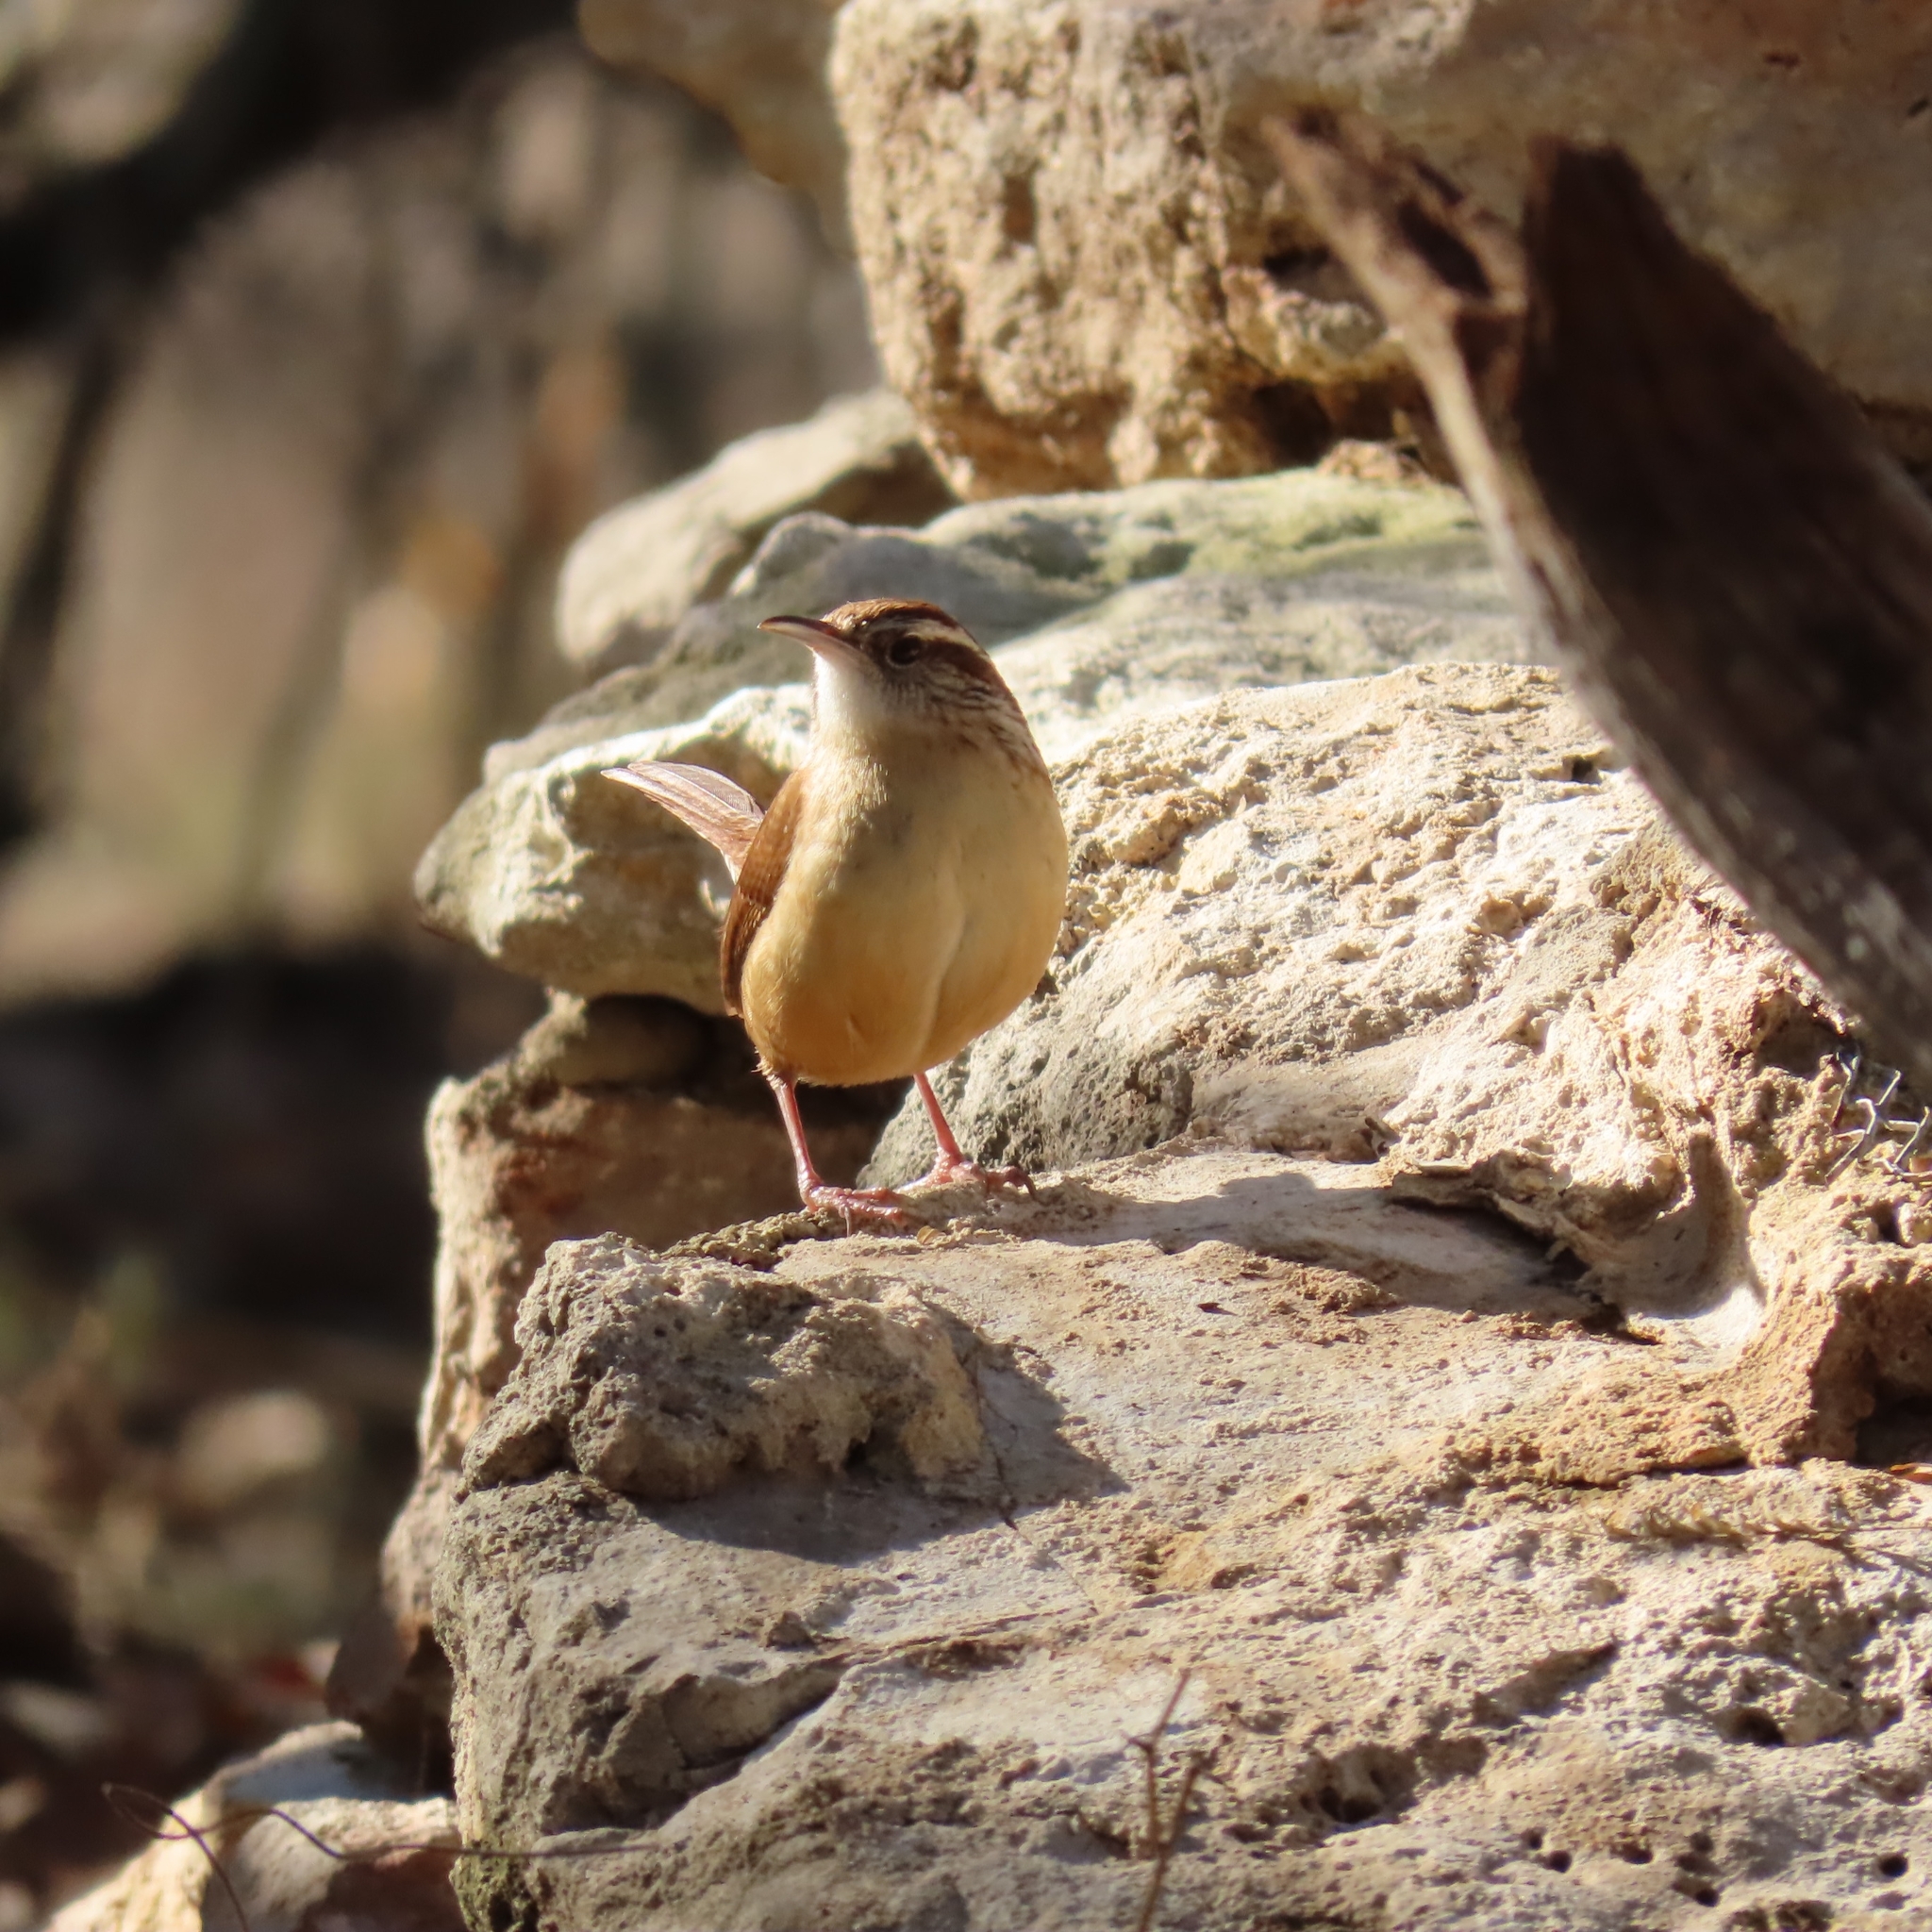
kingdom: Animalia
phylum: Chordata
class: Aves
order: Passeriformes
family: Troglodytidae
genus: Thryothorus
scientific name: Thryothorus ludovicianus
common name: Carolina wren
